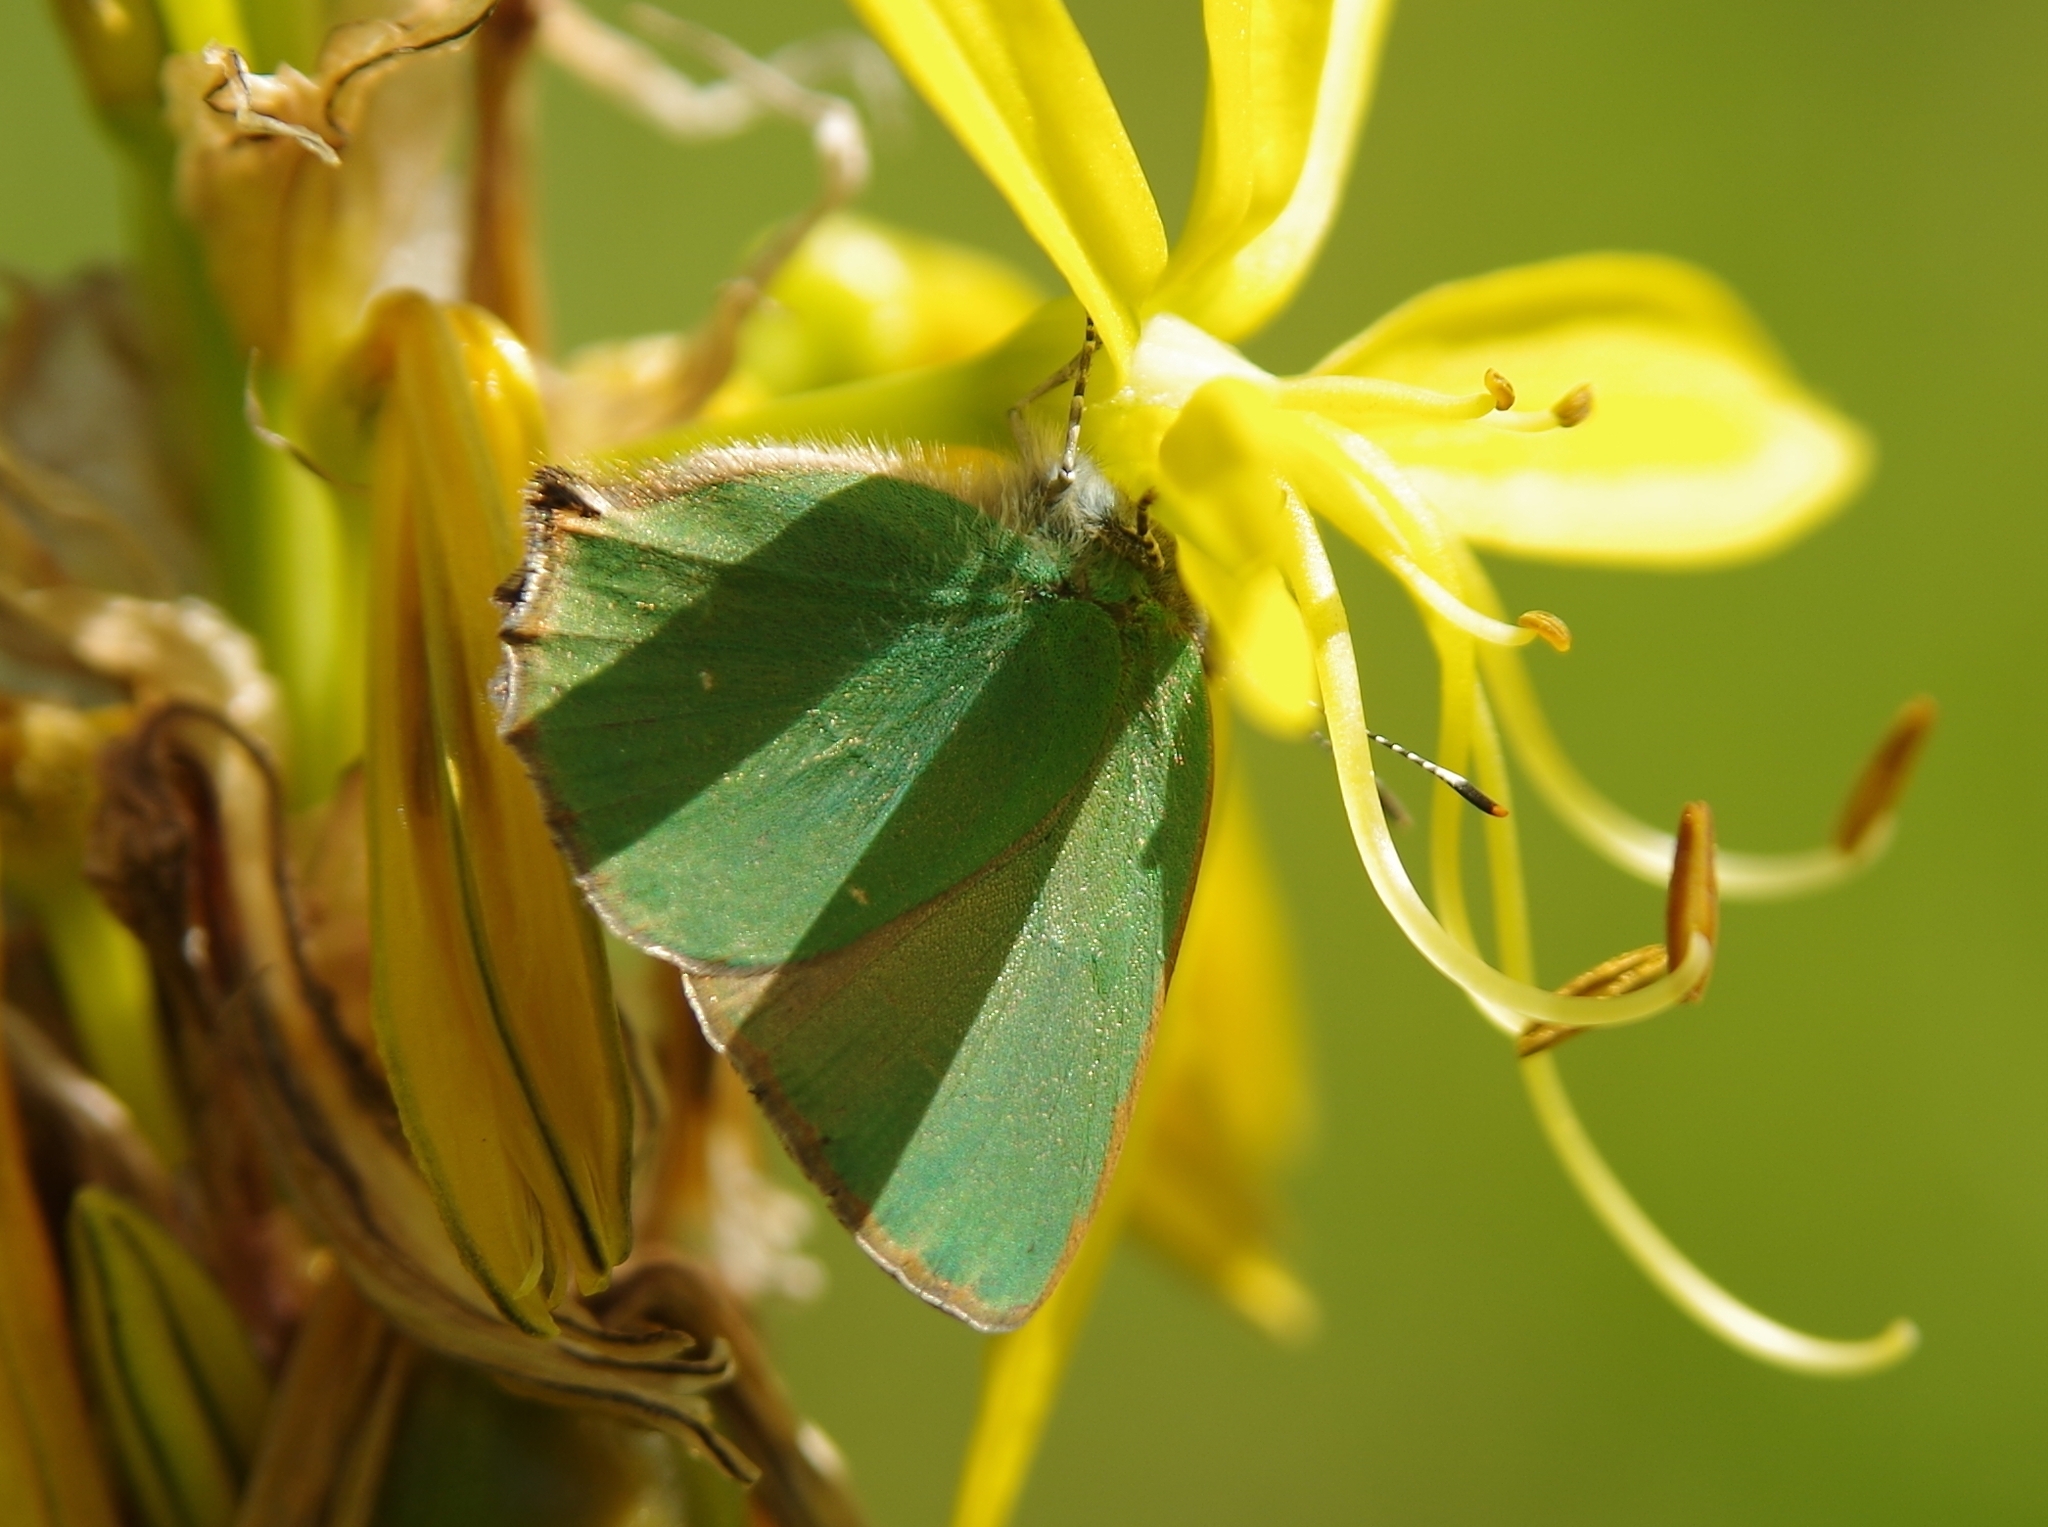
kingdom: Animalia
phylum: Arthropoda
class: Insecta
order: Lepidoptera
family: Lycaenidae
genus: Callophrys
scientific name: Callophrys rubi
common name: Green hairstreak
